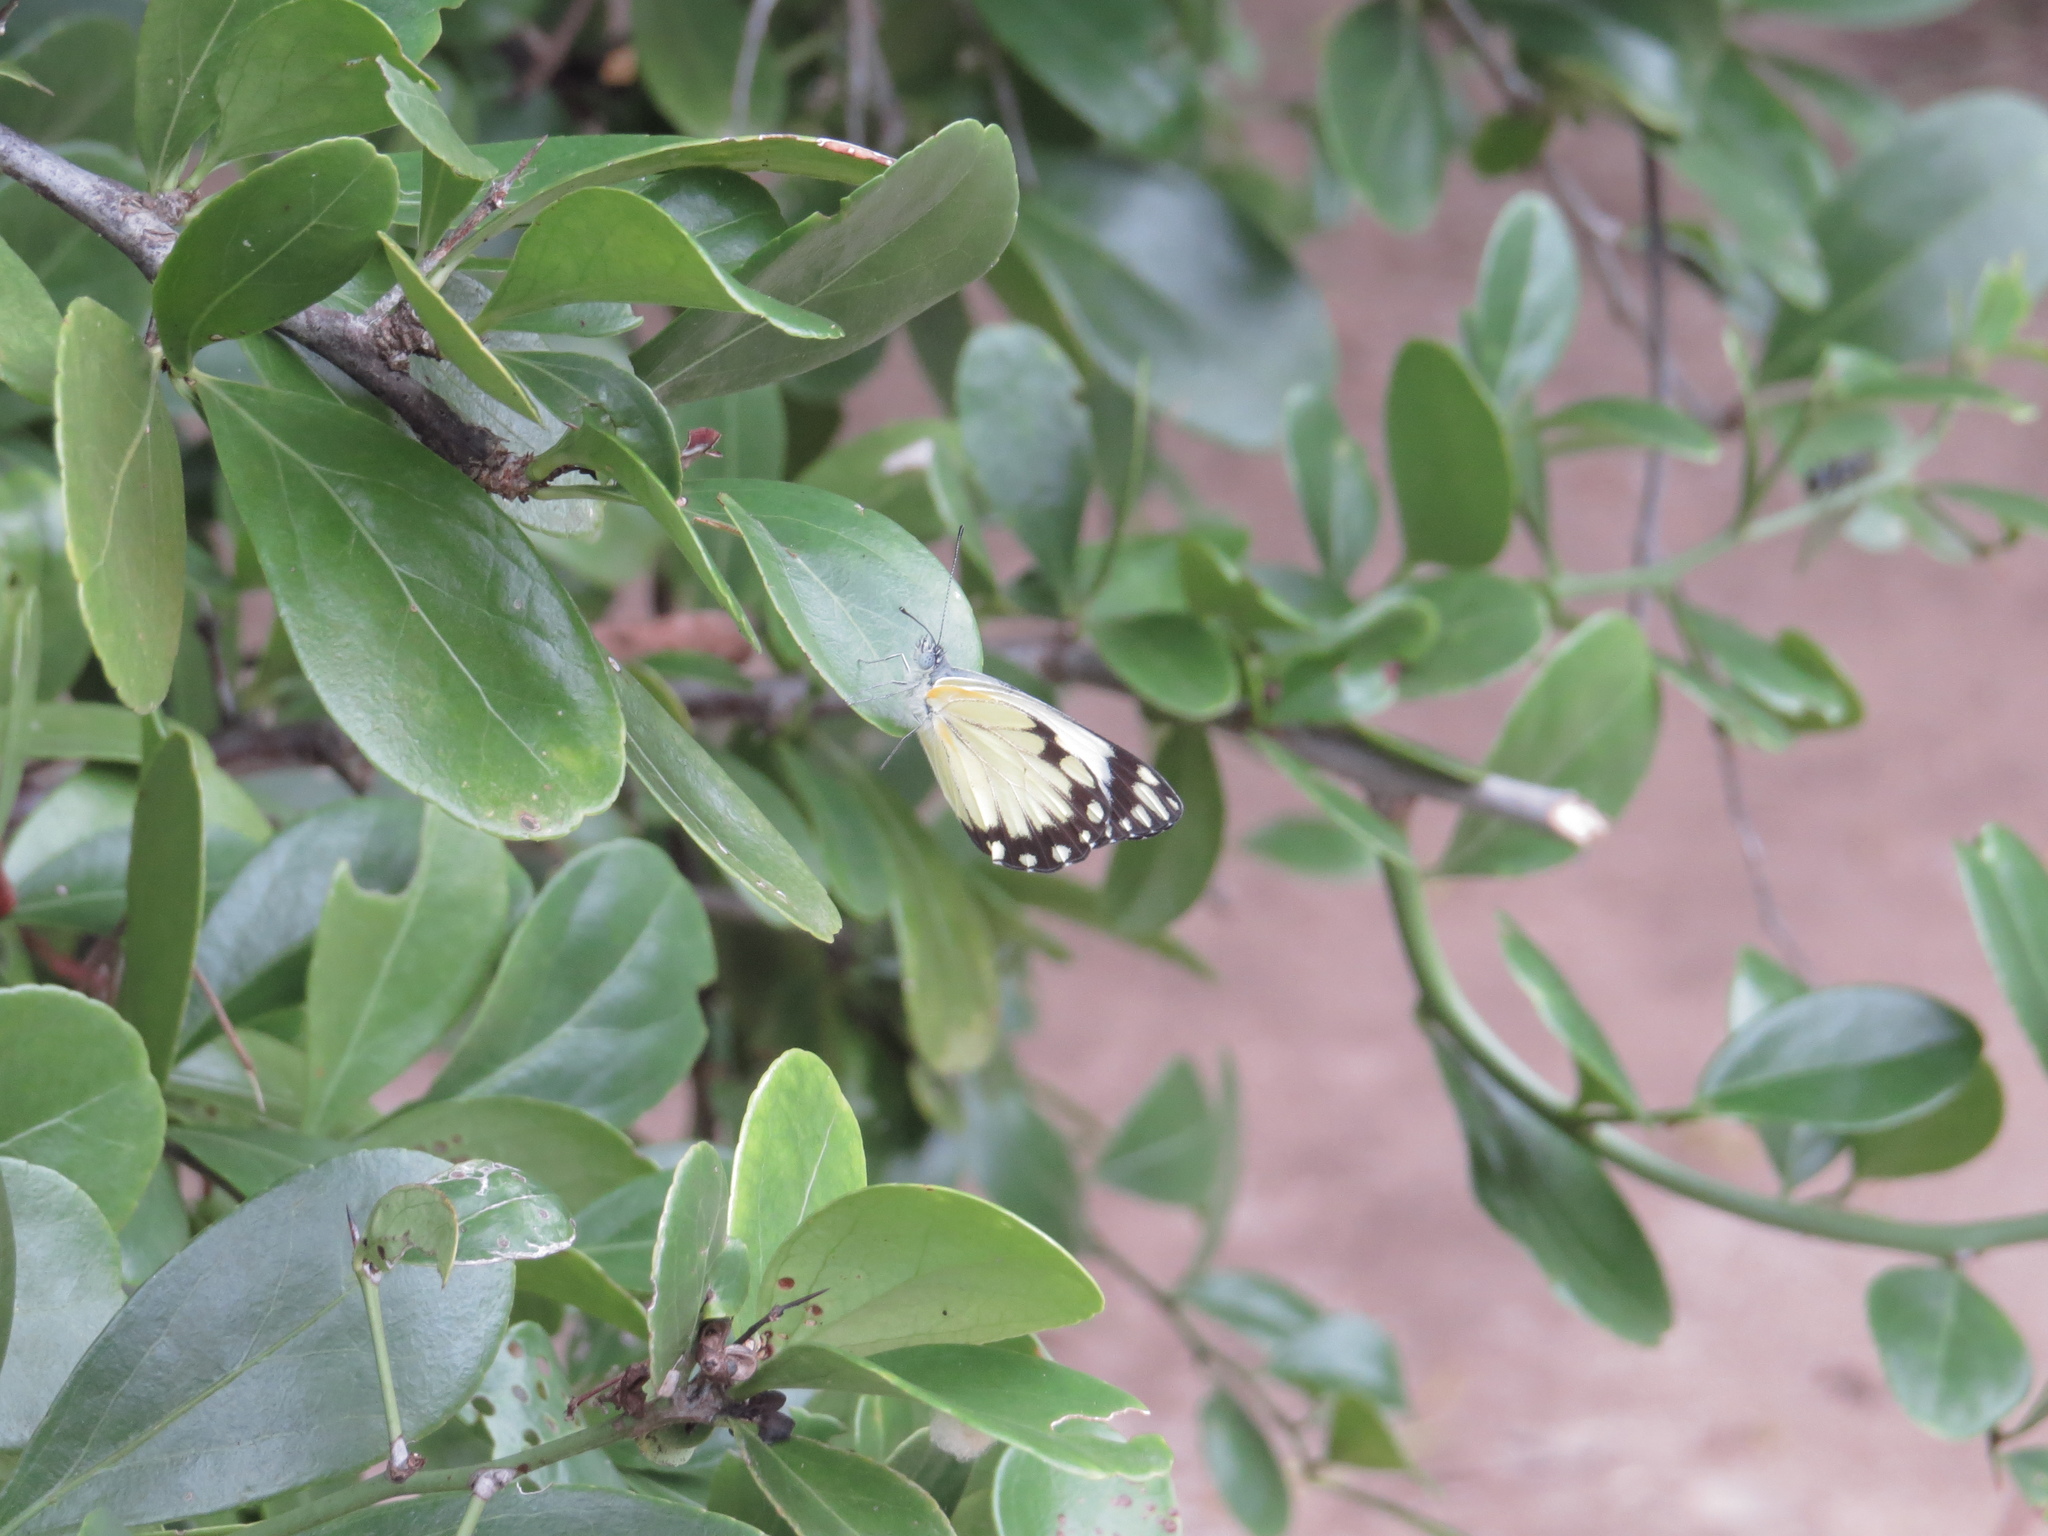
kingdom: Animalia
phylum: Arthropoda
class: Insecta
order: Lepidoptera
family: Pieridae
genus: Belenois
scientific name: Belenois creona
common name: African caper white
